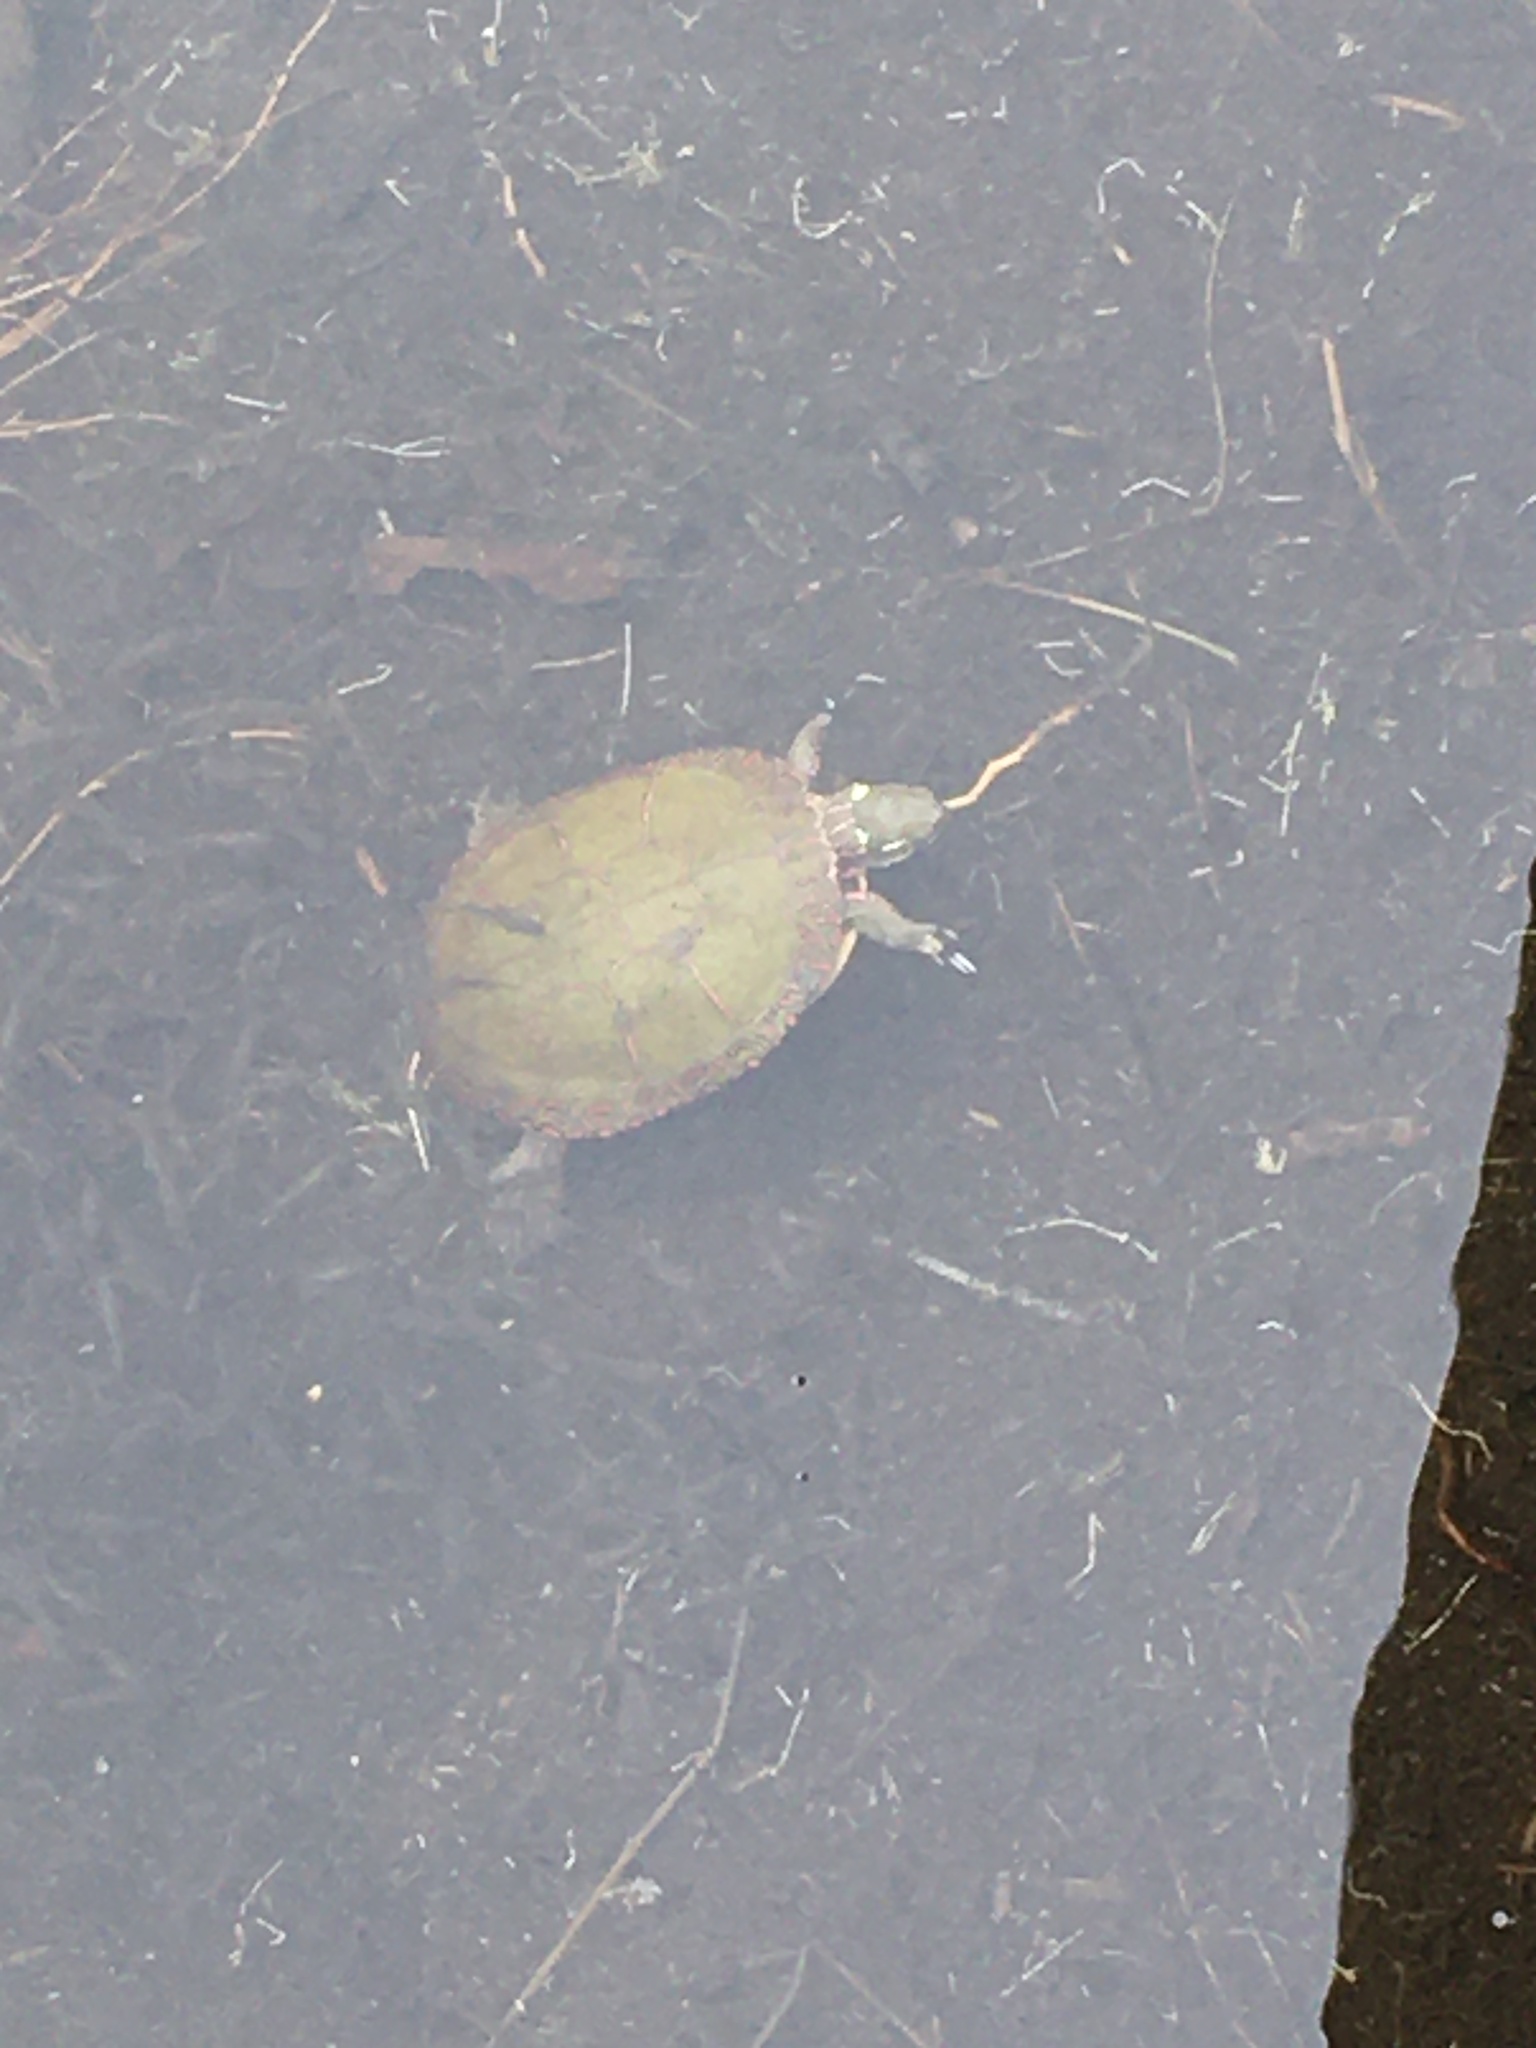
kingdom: Animalia
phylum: Chordata
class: Testudines
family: Emydidae
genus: Chrysemys
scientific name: Chrysemys picta
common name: Painted turtle
